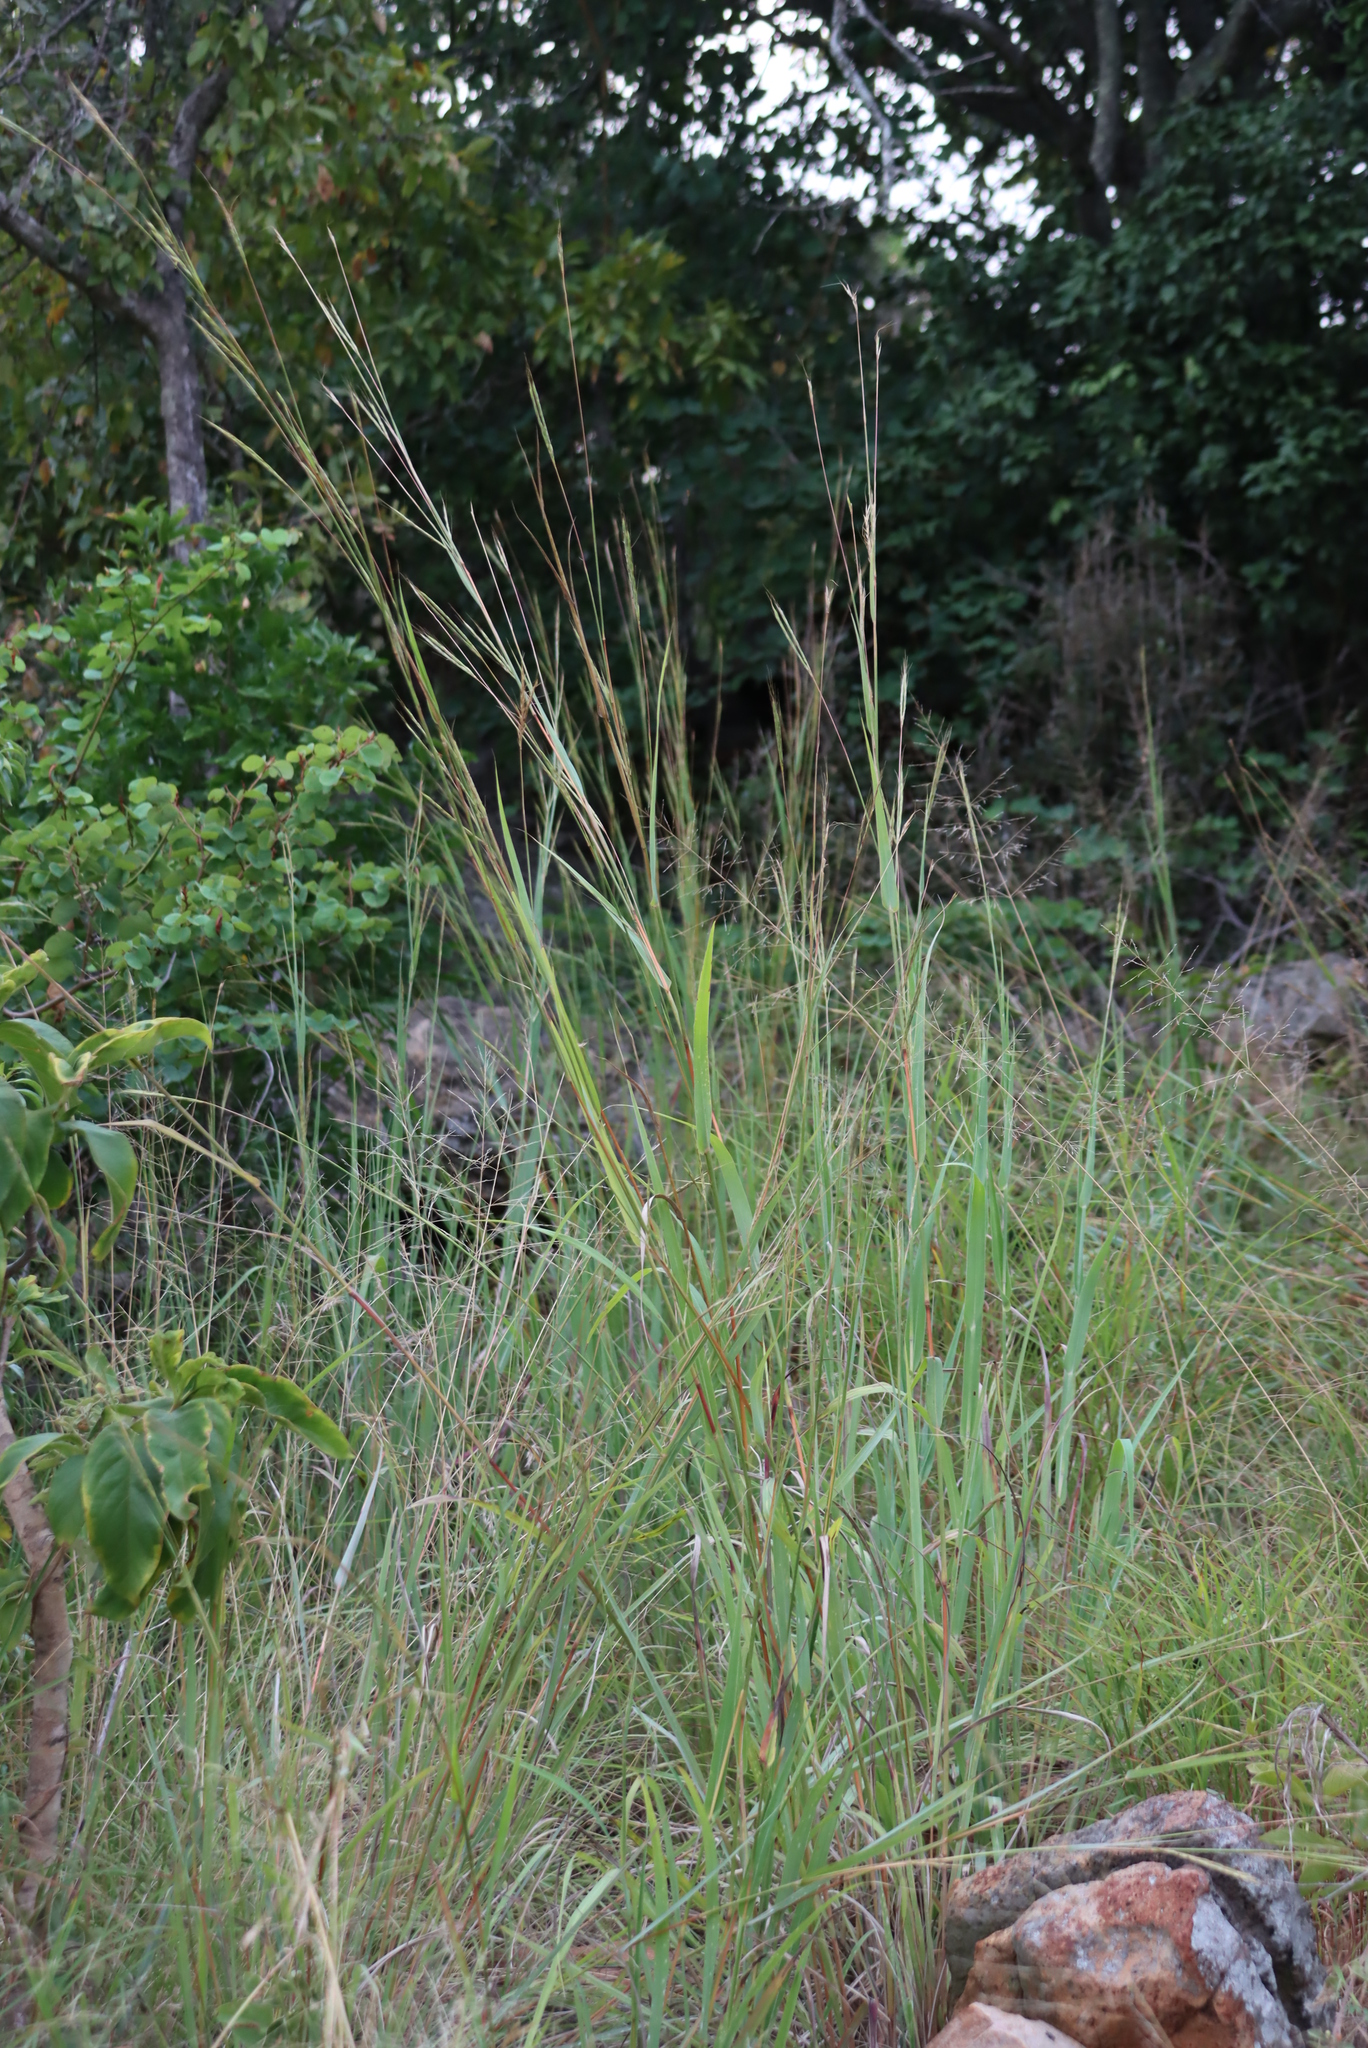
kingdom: Plantae
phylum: Tracheophyta
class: Liliopsida
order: Poales
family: Poaceae
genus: Diheteropogon
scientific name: Diheteropogon amplectens
